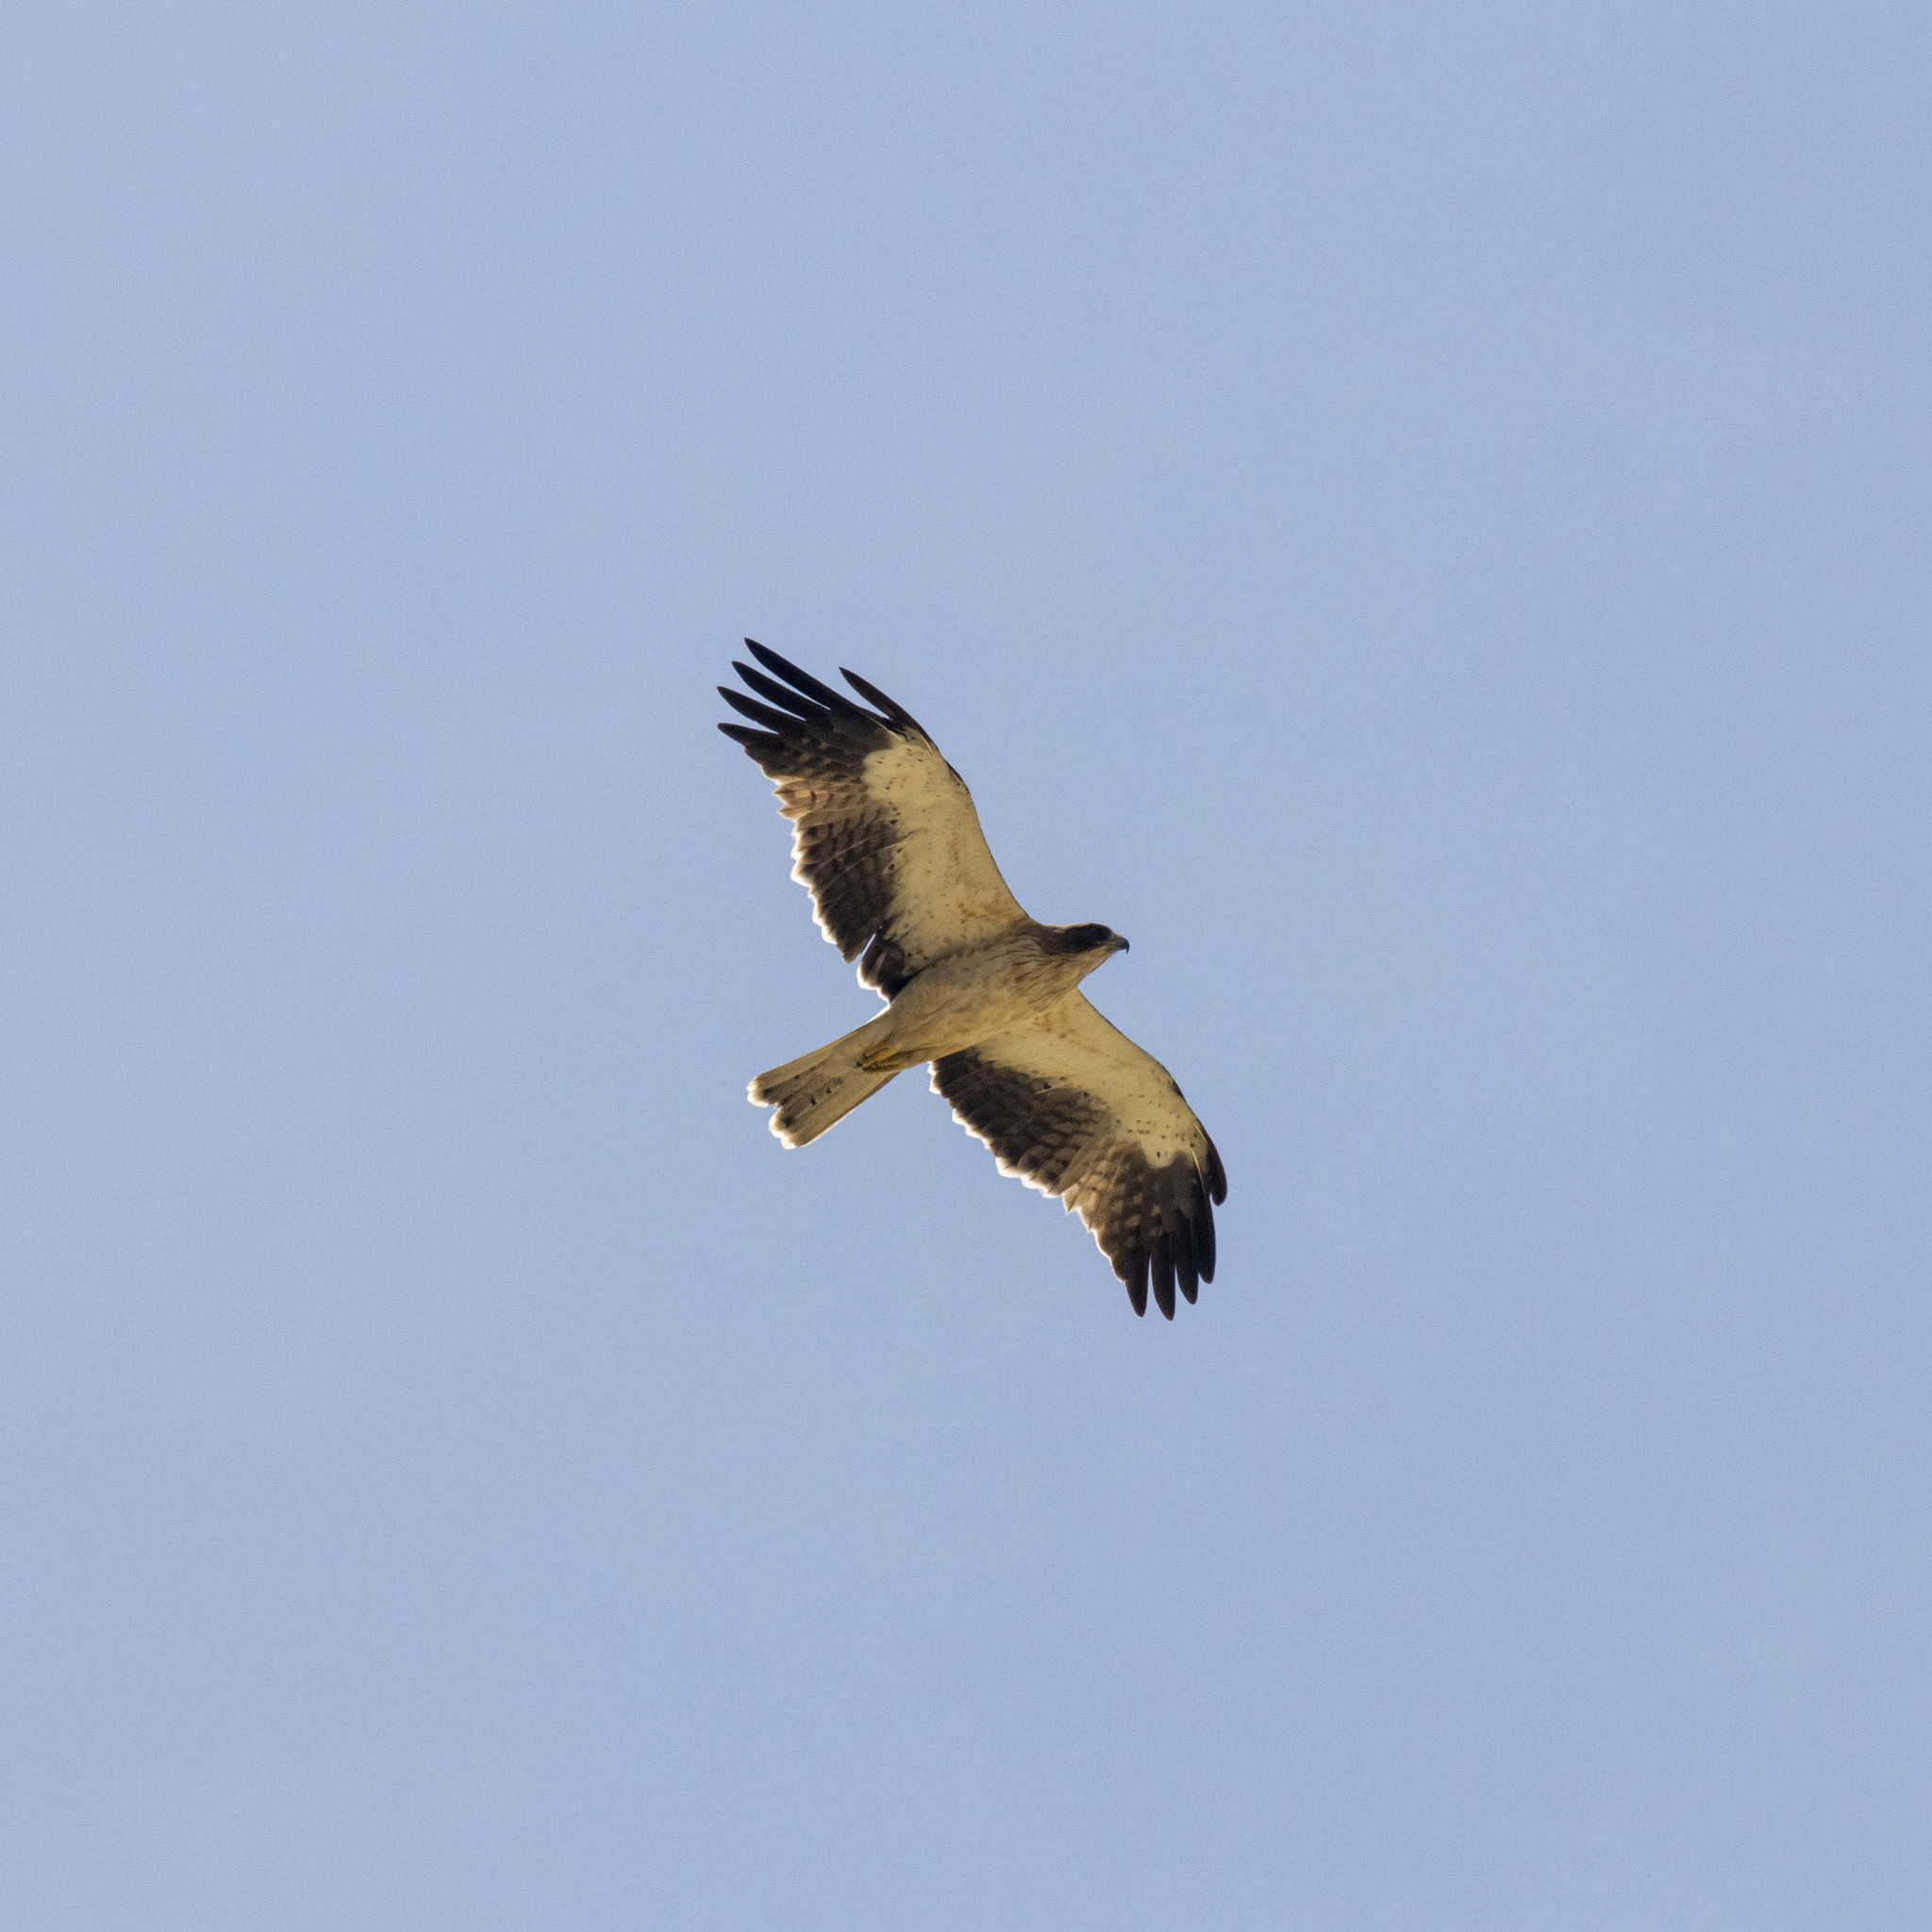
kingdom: Animalia
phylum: Chordata
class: Aves
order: Accipitriformes
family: Accipitridae
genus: Hieraaetus
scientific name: Hieraaetus pennatus
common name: Booted eagle
